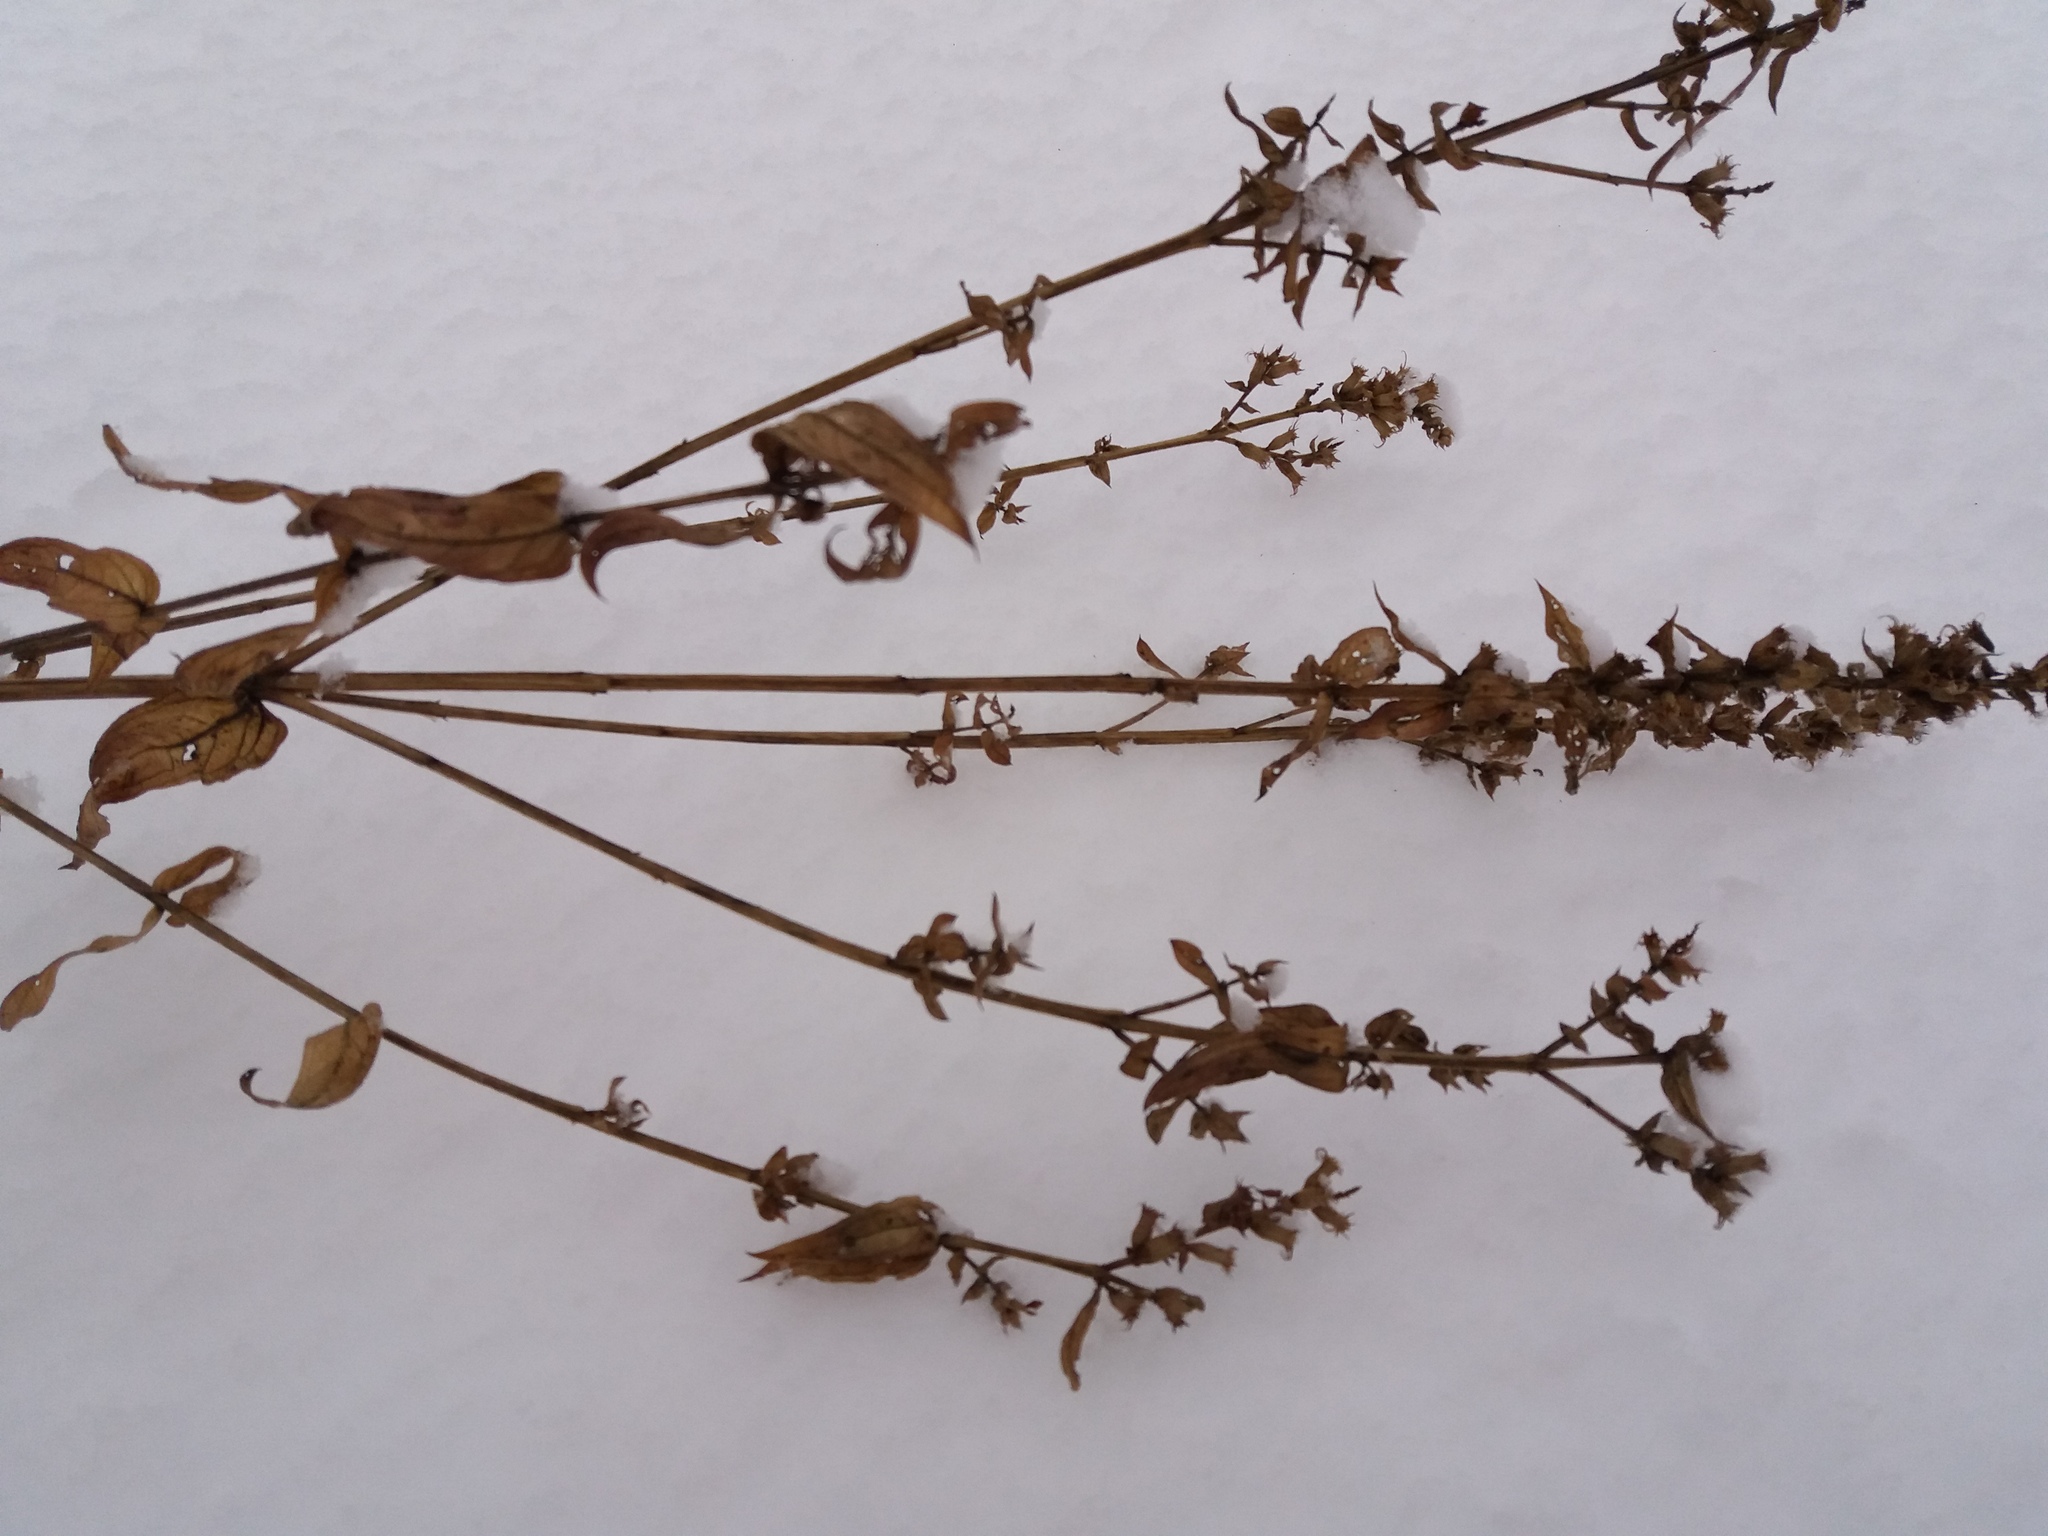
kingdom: Plantae
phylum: Tracheophyta
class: Magnoliopsida
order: Myrtales
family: Lythraceae
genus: Lythrum
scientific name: Lythrum salicaria
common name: Purple loosestrife
